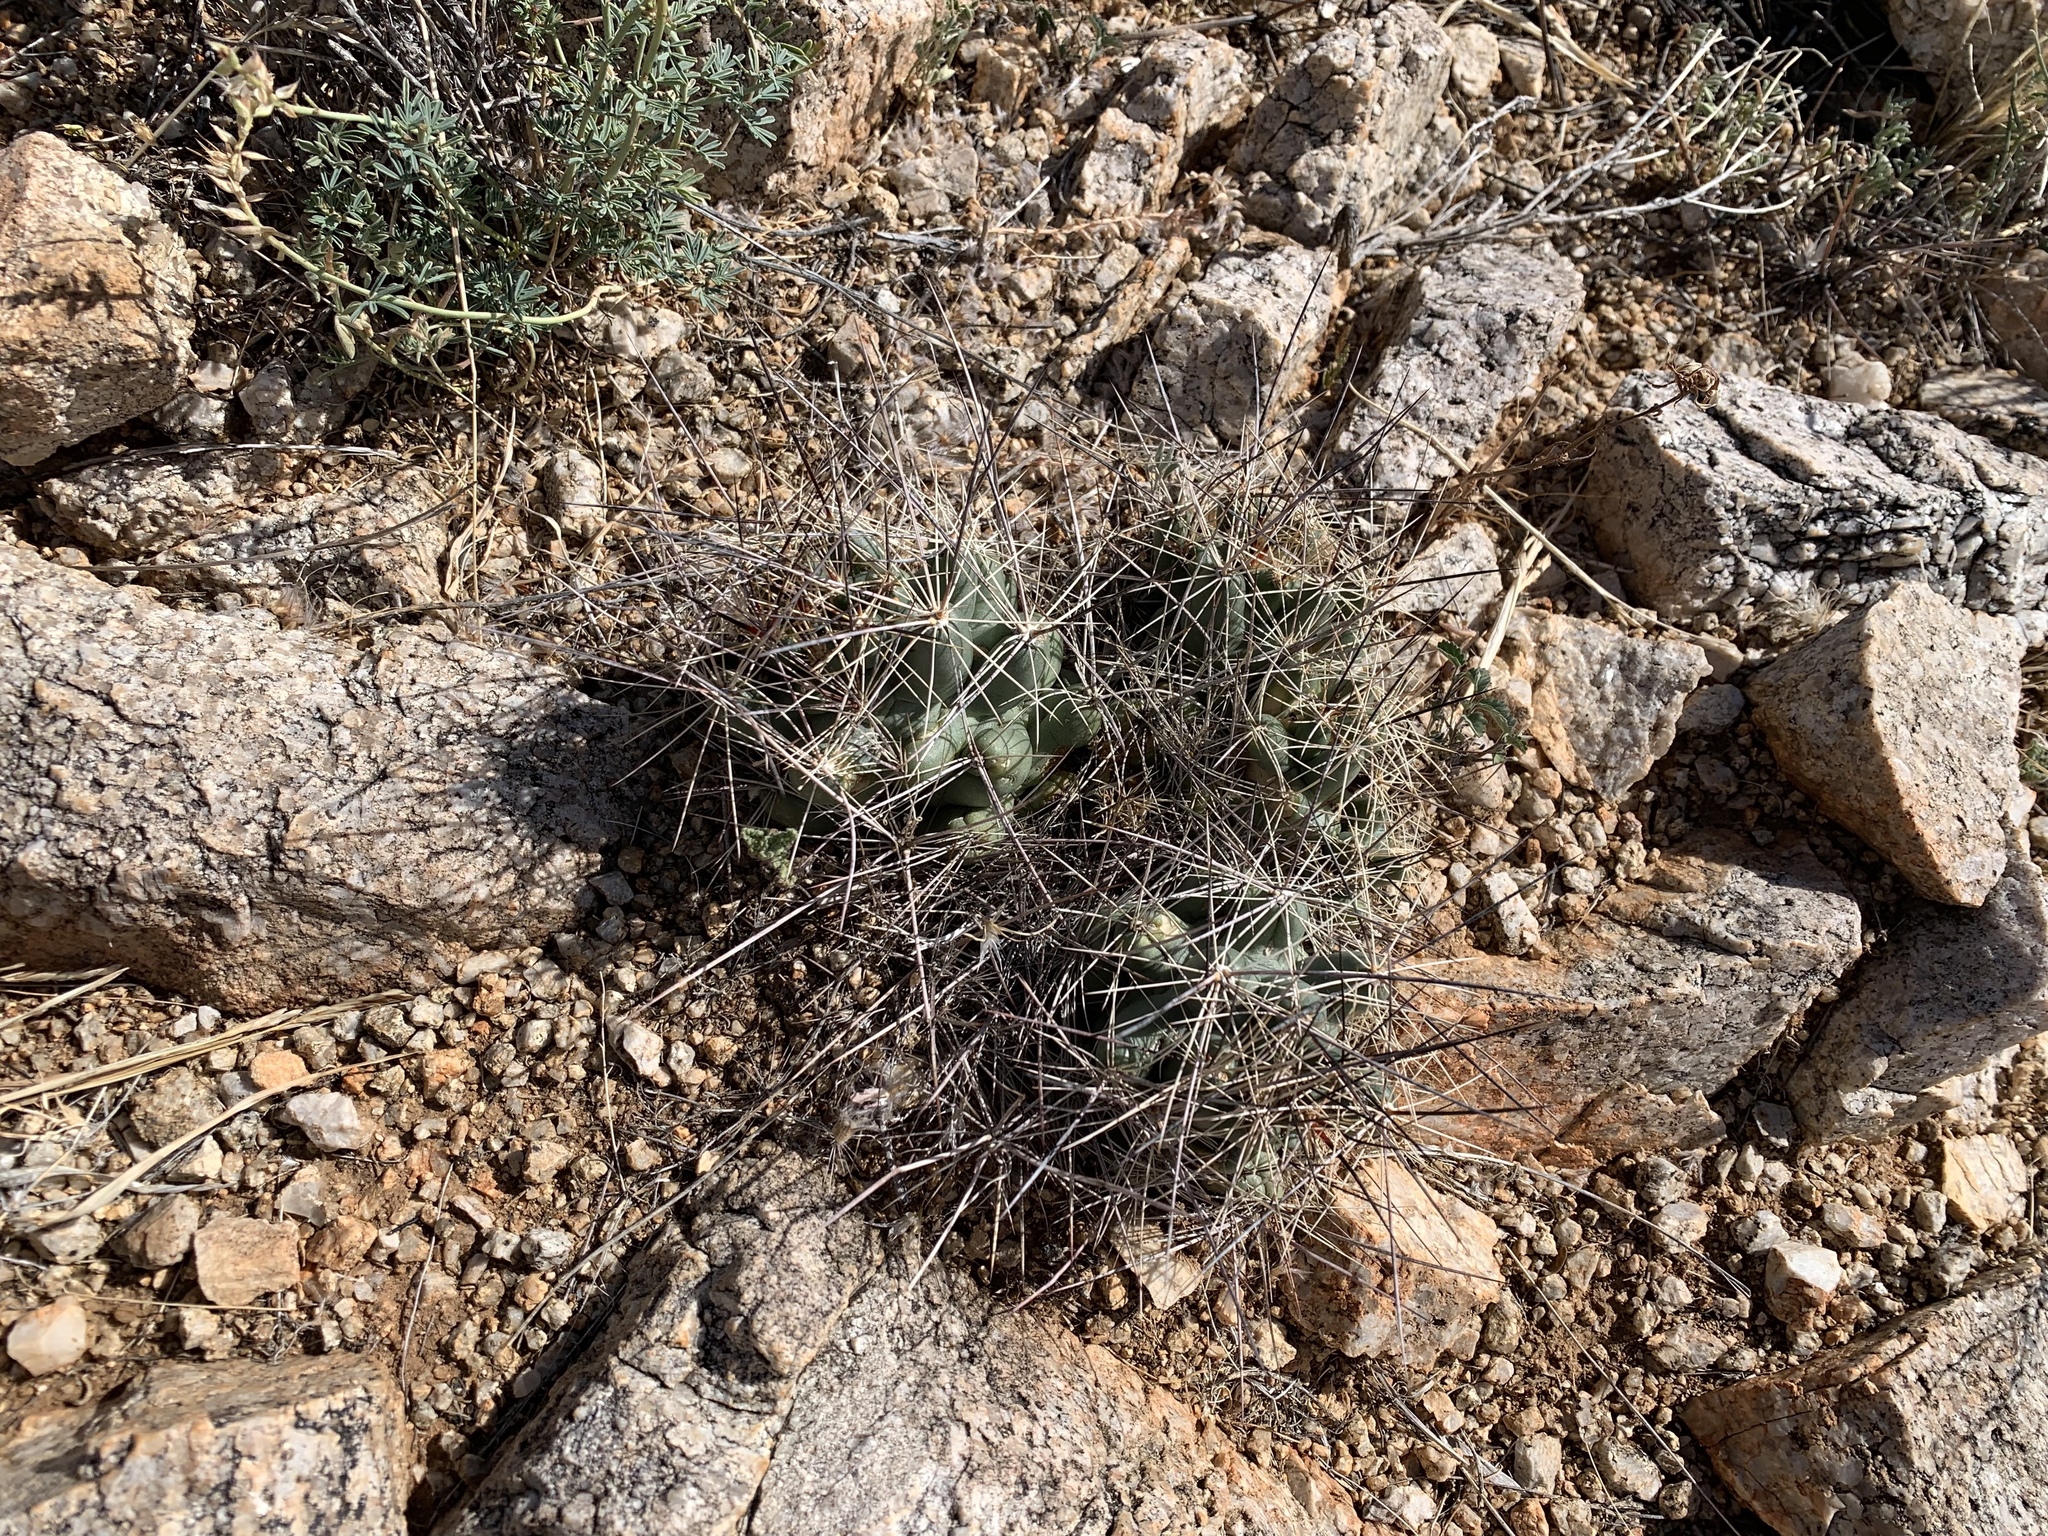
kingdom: Plantae
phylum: Tracheophyta
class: Magnoliopsida
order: Caryophyllales
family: Cactaceae
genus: Coryphantha
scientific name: Coryphantha macromeris
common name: Nipple beehive cactus
